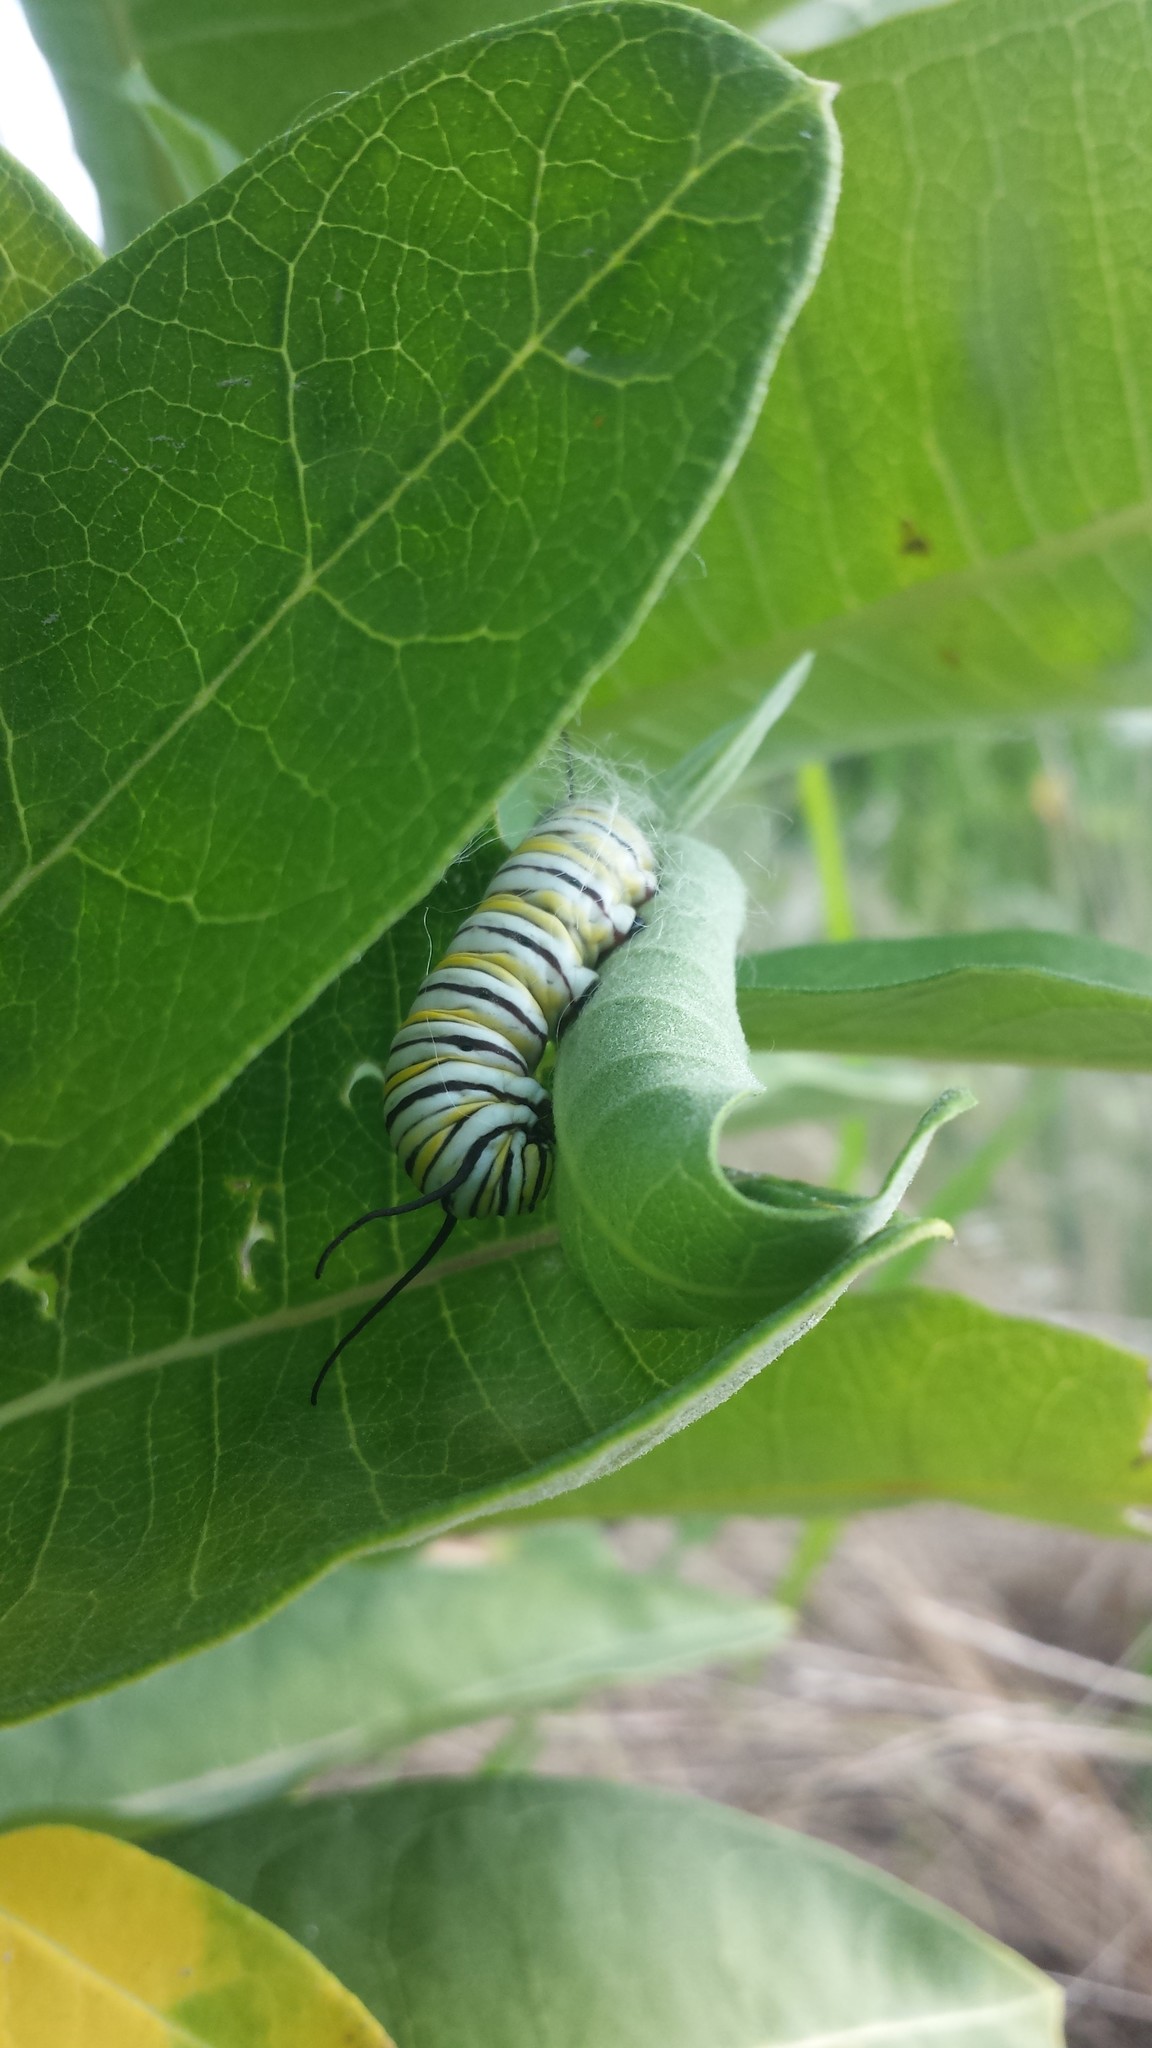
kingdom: Animalia
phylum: Arthropoda
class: Insecta
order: Lepidoptera
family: Nymphalidae
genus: Danaus
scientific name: Danaus plexippus
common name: Monarch
